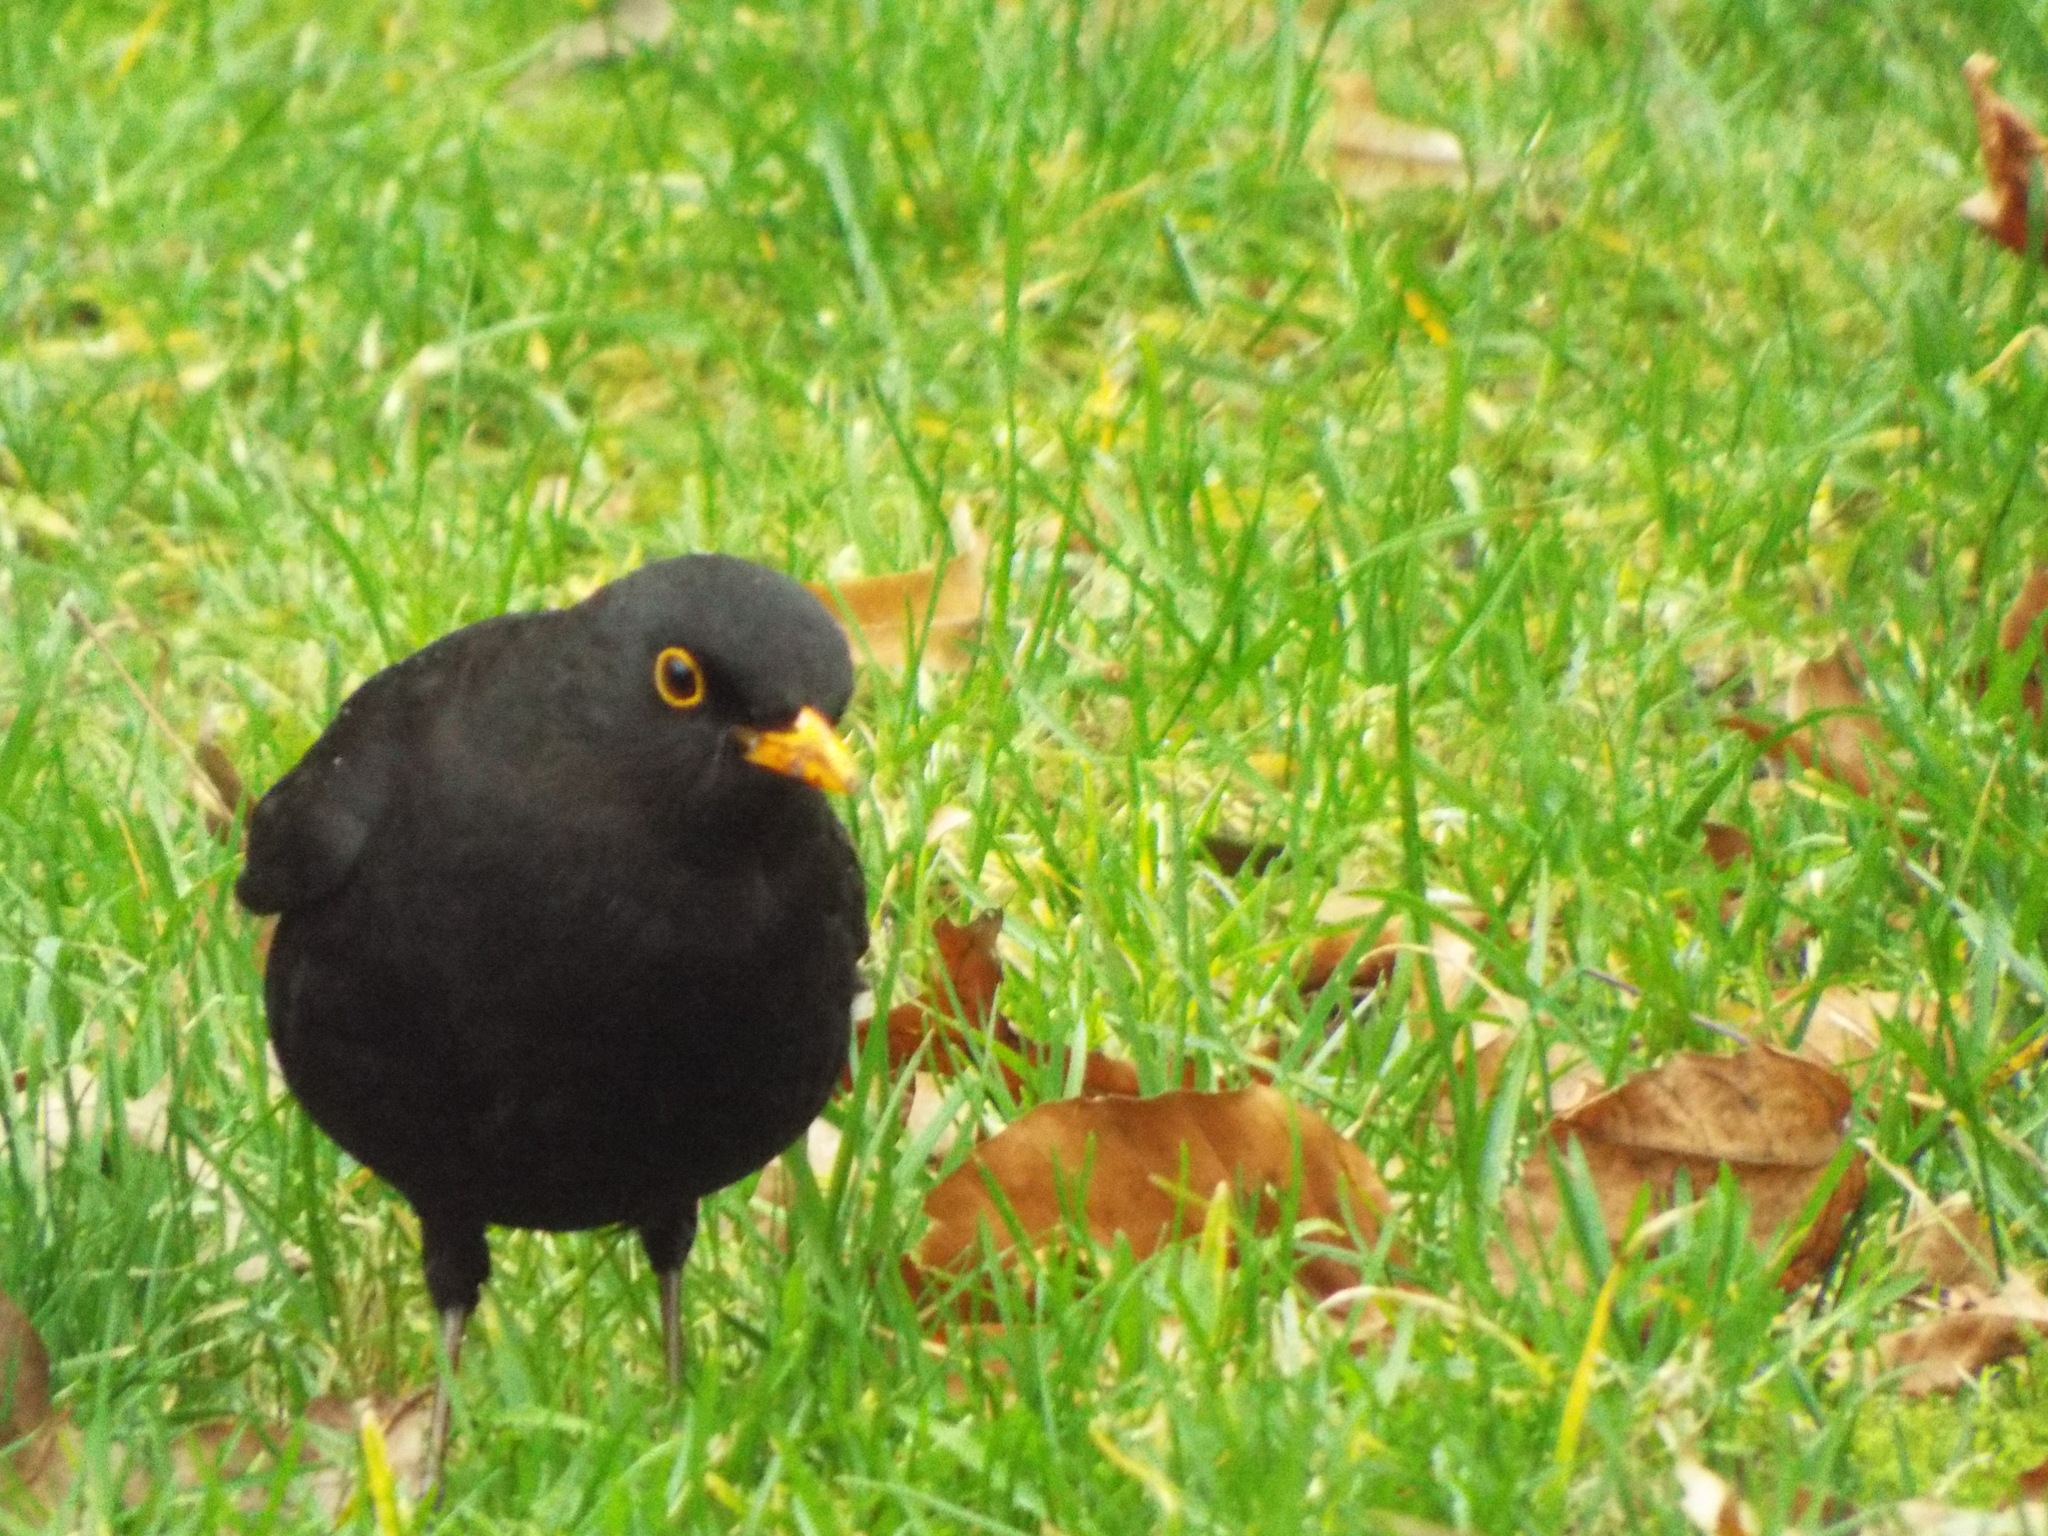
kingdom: Animalia
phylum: Chordata
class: Aves
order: Passeriformes
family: Turdidae
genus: Turdus
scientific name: Turdus merula
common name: Common blackbird
